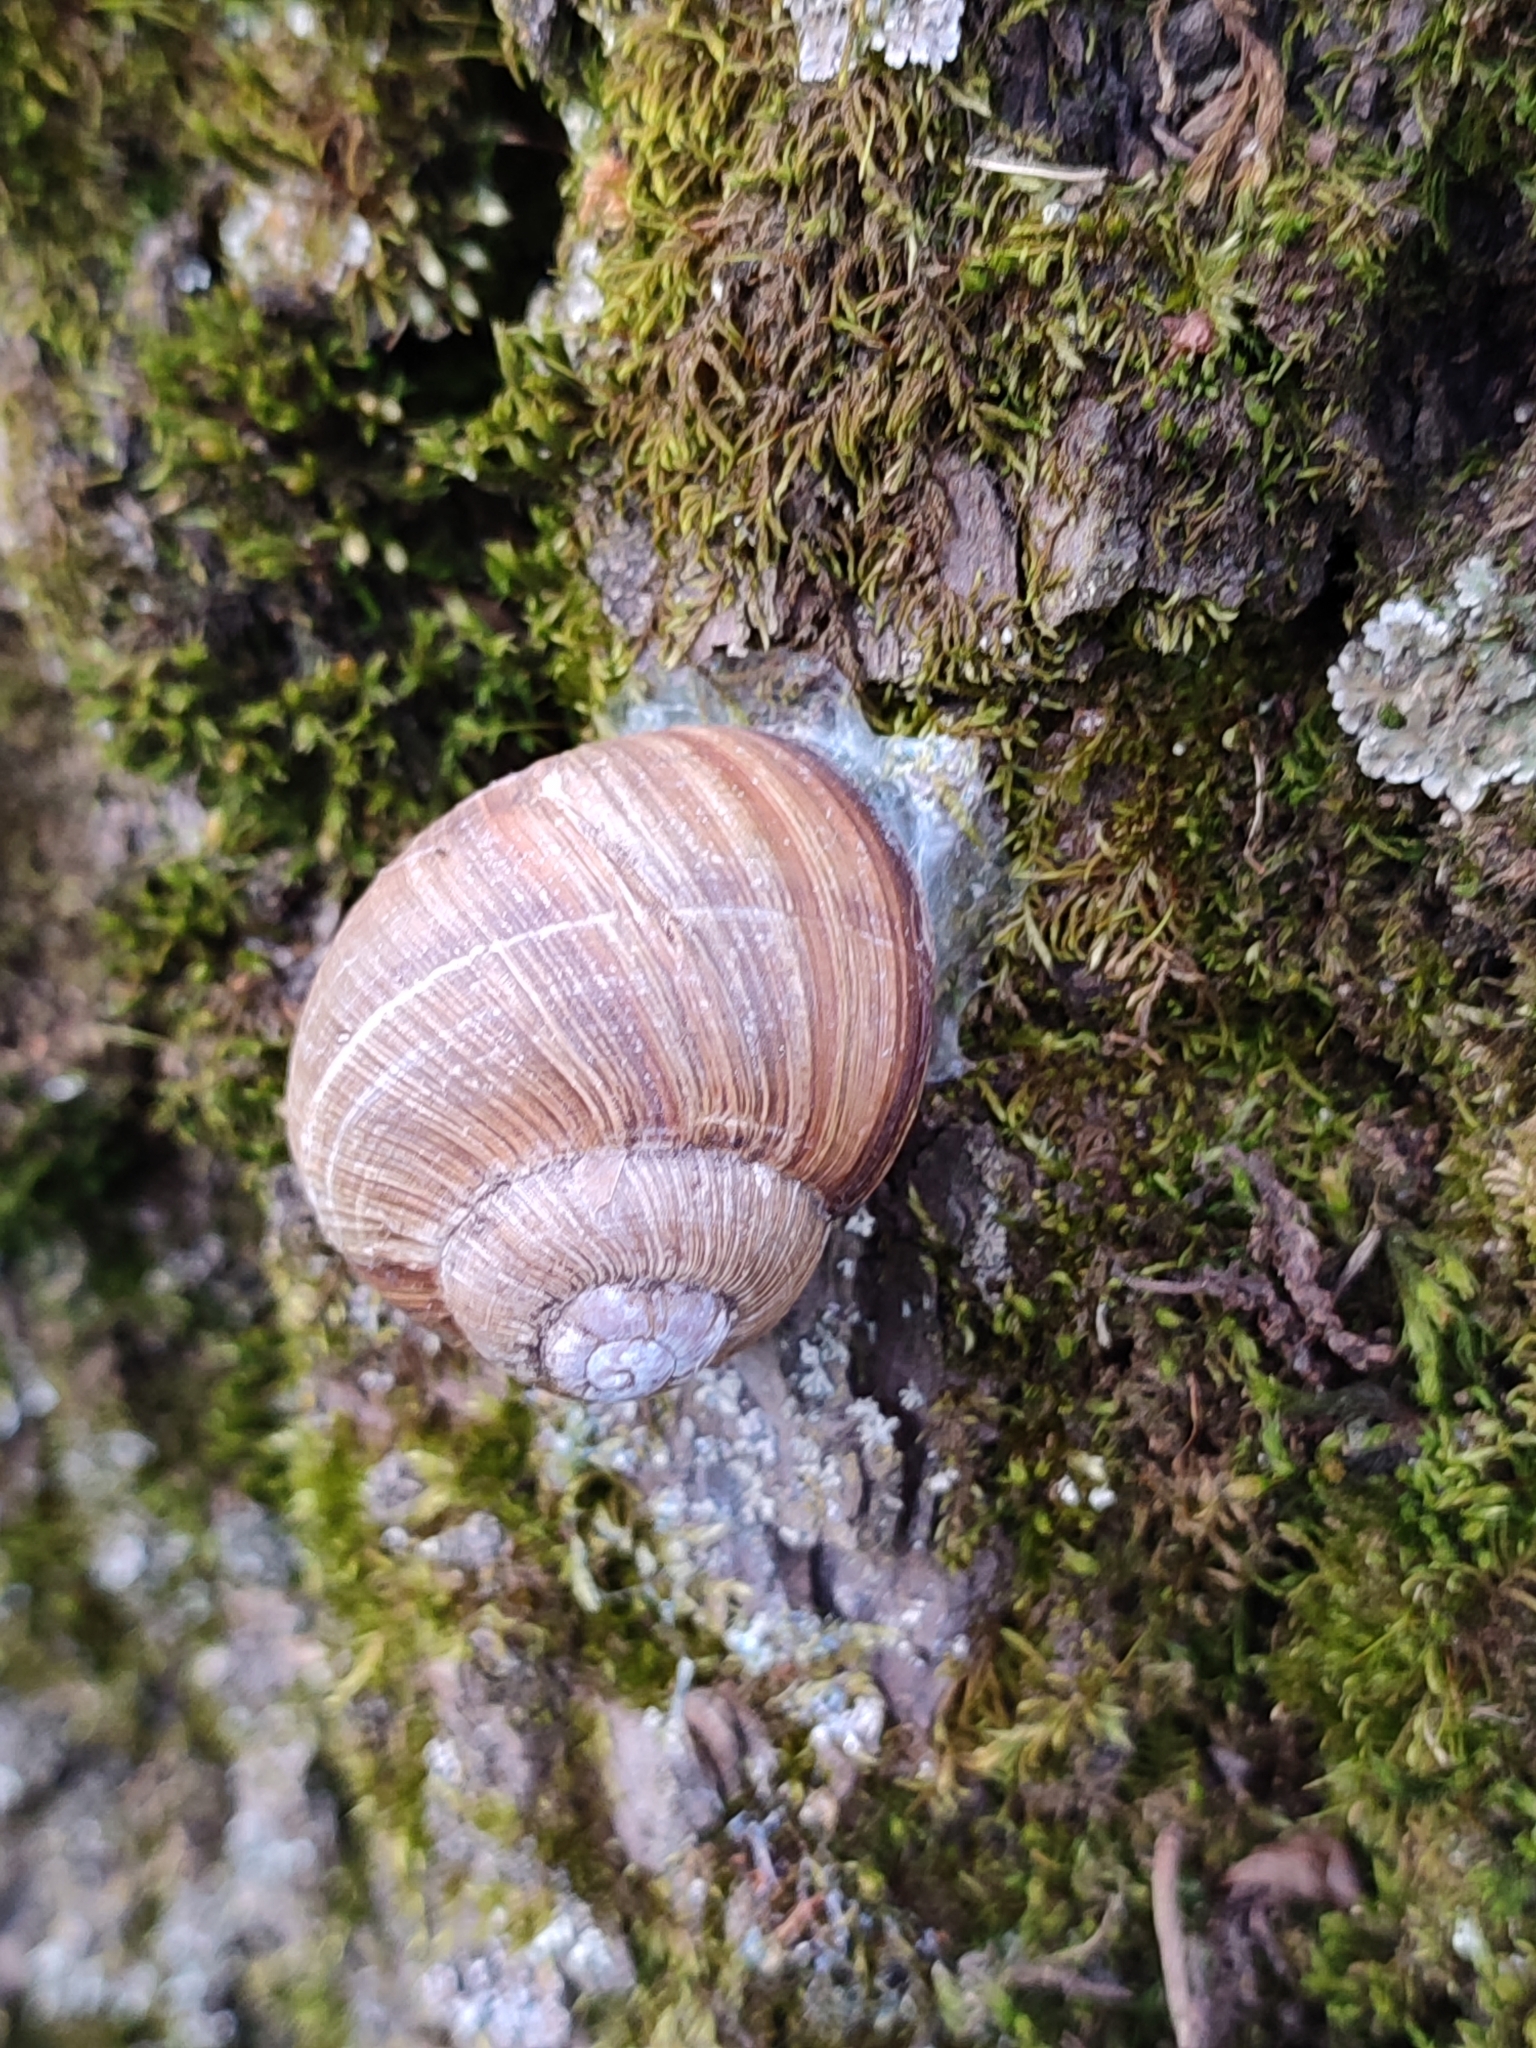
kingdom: Animalia
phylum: Mollusca
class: Gastropoda
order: Stylommatophora
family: Helicidae
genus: Helix
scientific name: Helix pomatia
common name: Roman snail
